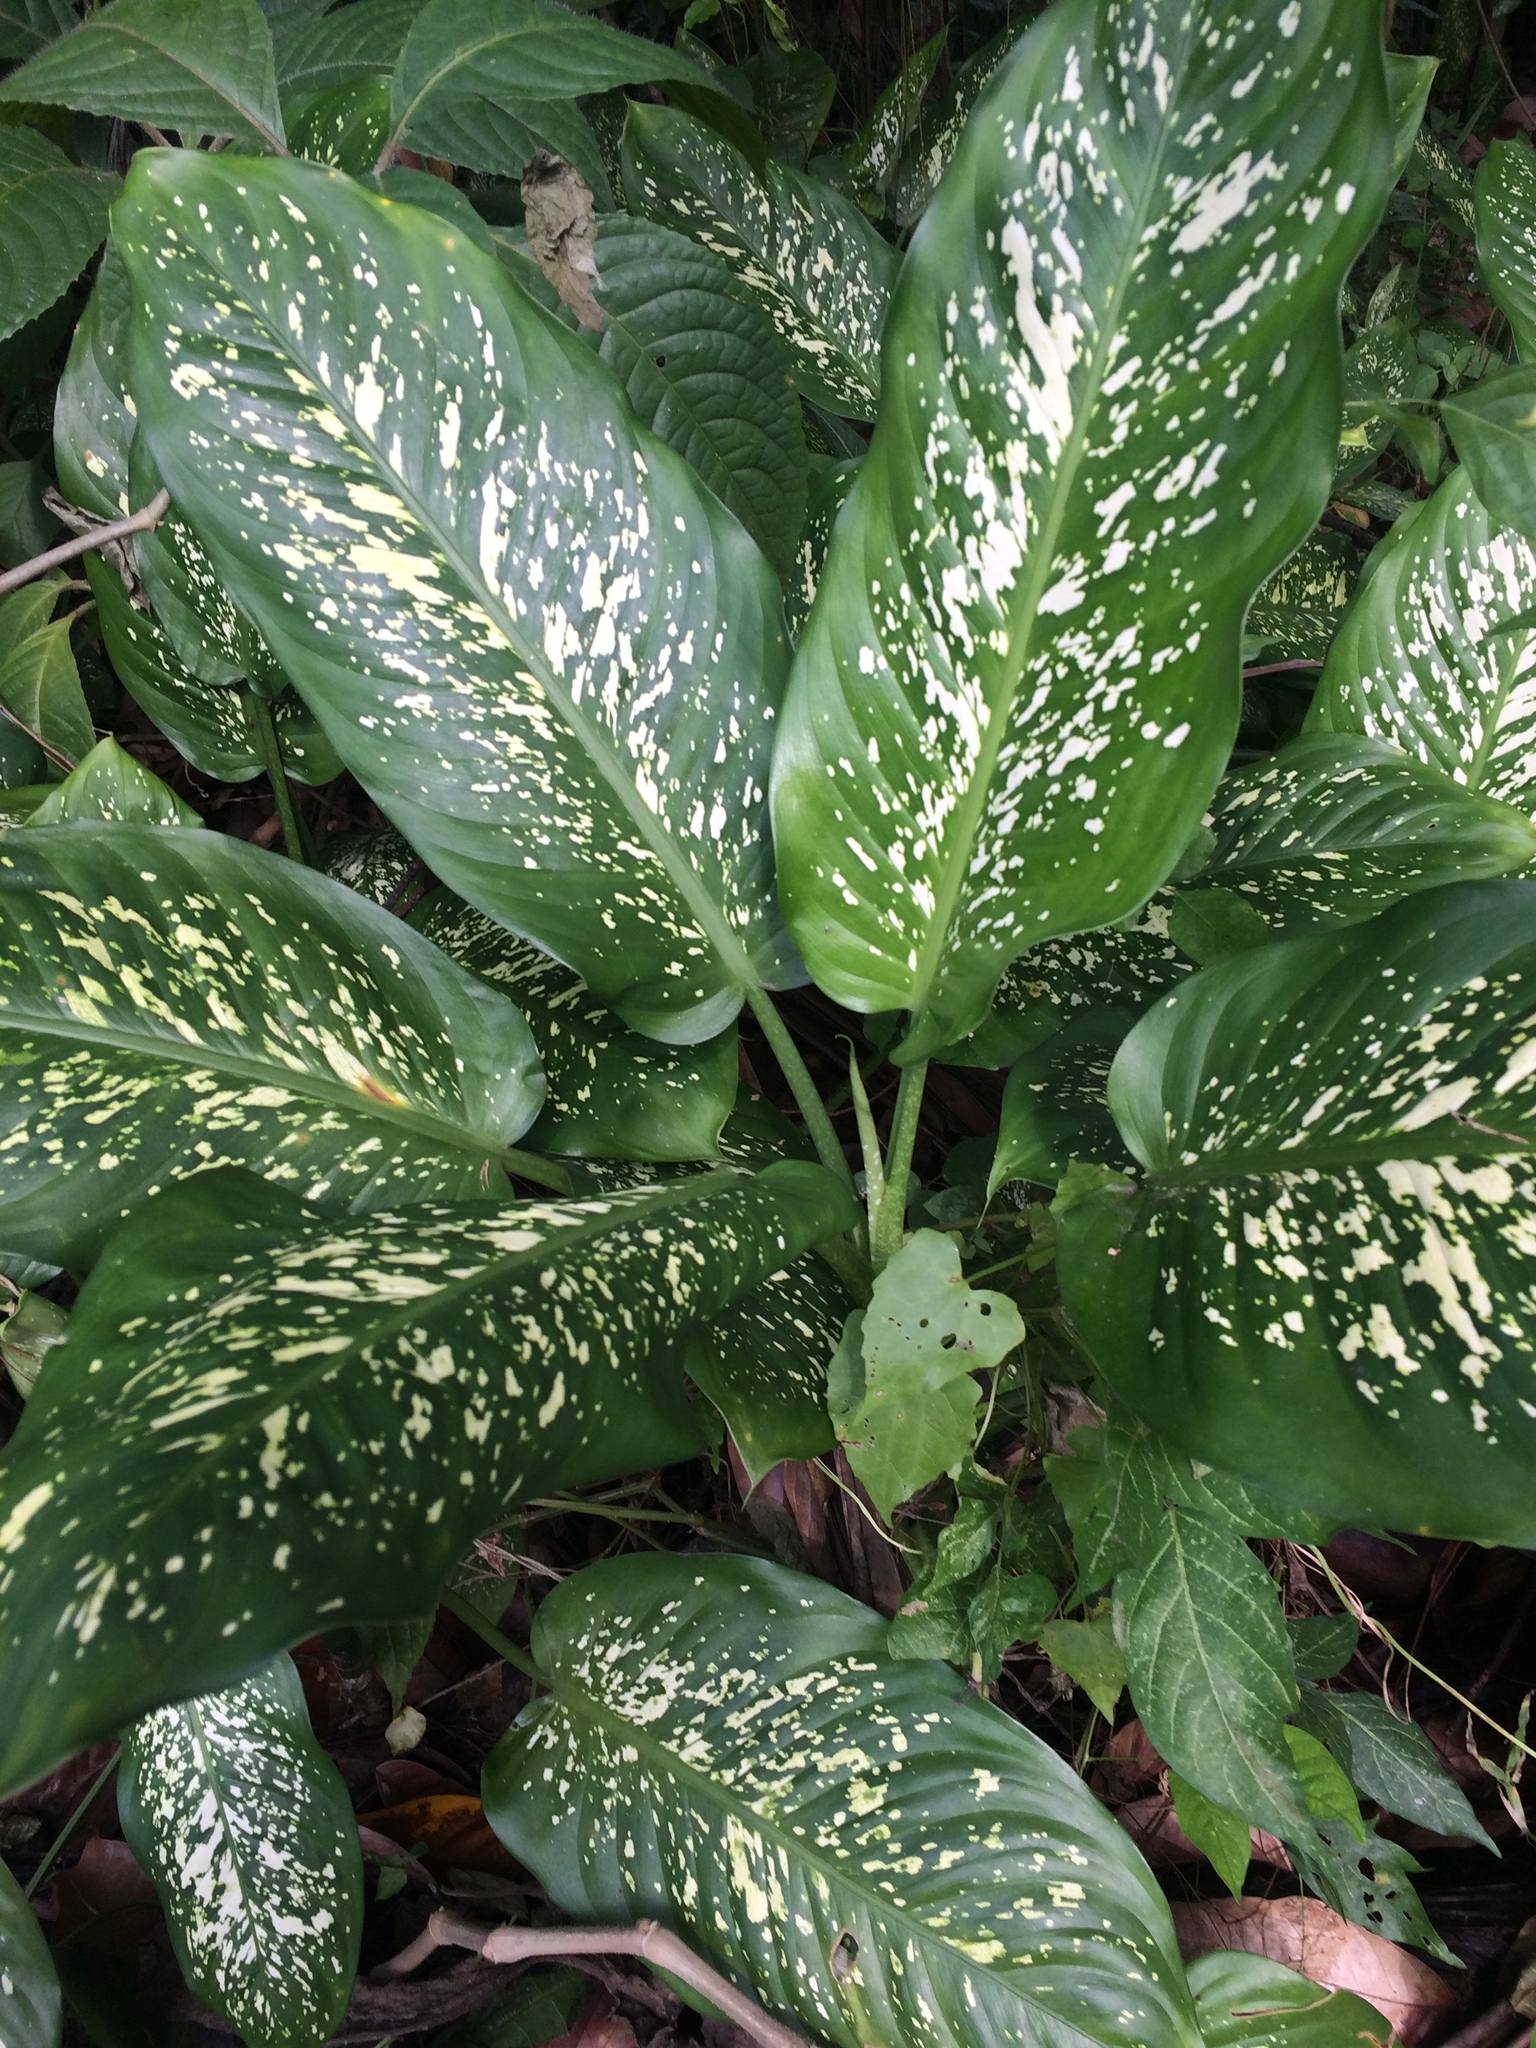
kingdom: Plantae
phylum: Tracheophyta
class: Liliopsida
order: Alismatales
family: Araceae
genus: Dieffenbachia
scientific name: Dieffenbachia seguine
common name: Dumbcane
